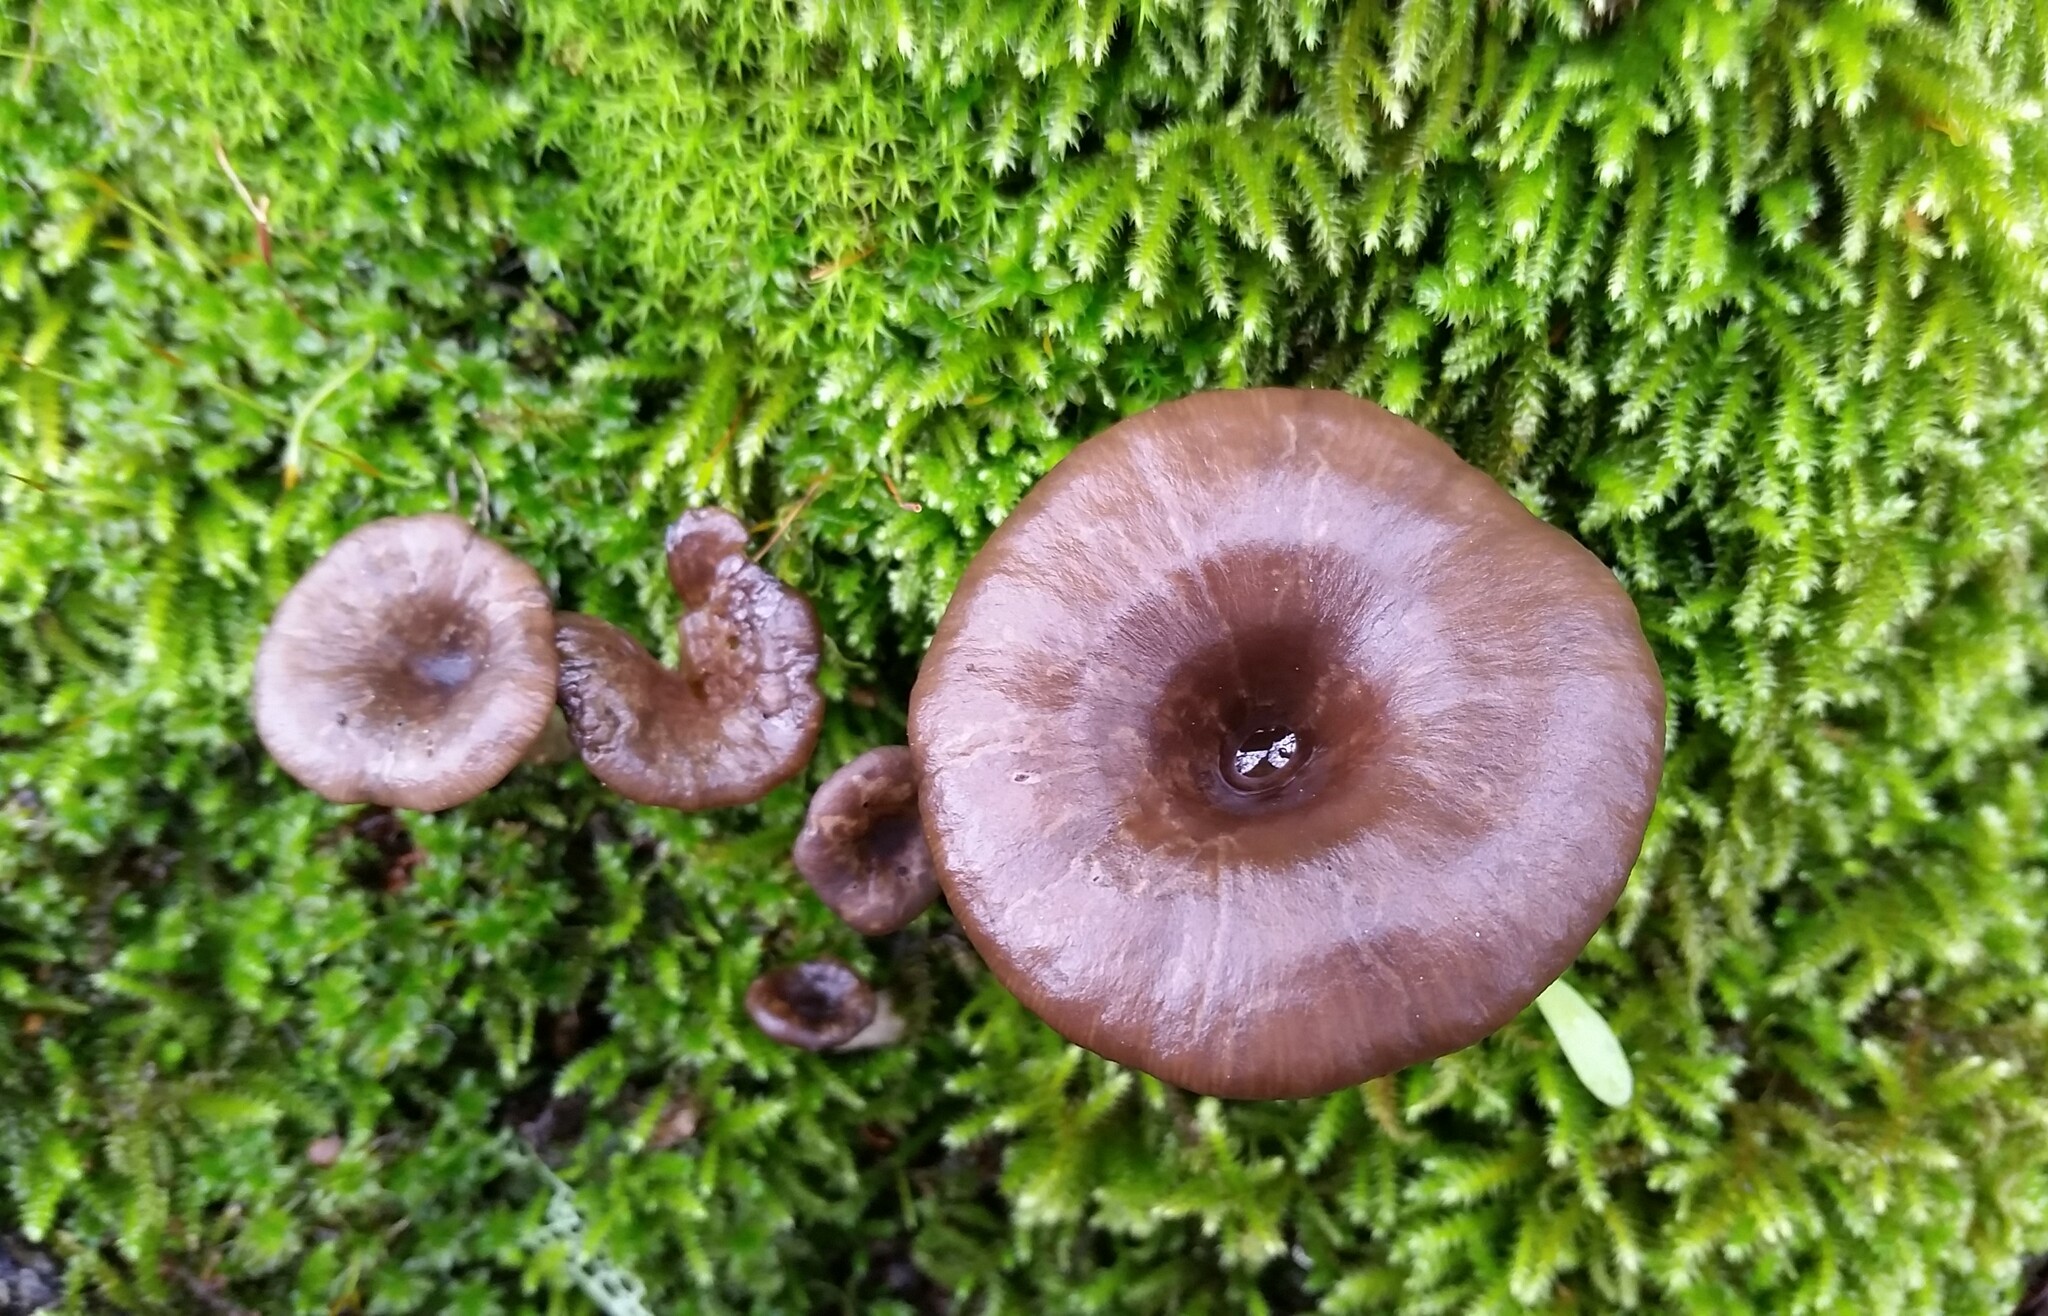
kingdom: Fungi
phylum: Basidiomycota
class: Agaricomycetes
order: Agaricales
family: Pseudoclitocybaceae
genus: Pseudoclitocybe
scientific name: Pseudoclitocybe cyathiformis
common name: Goblet
